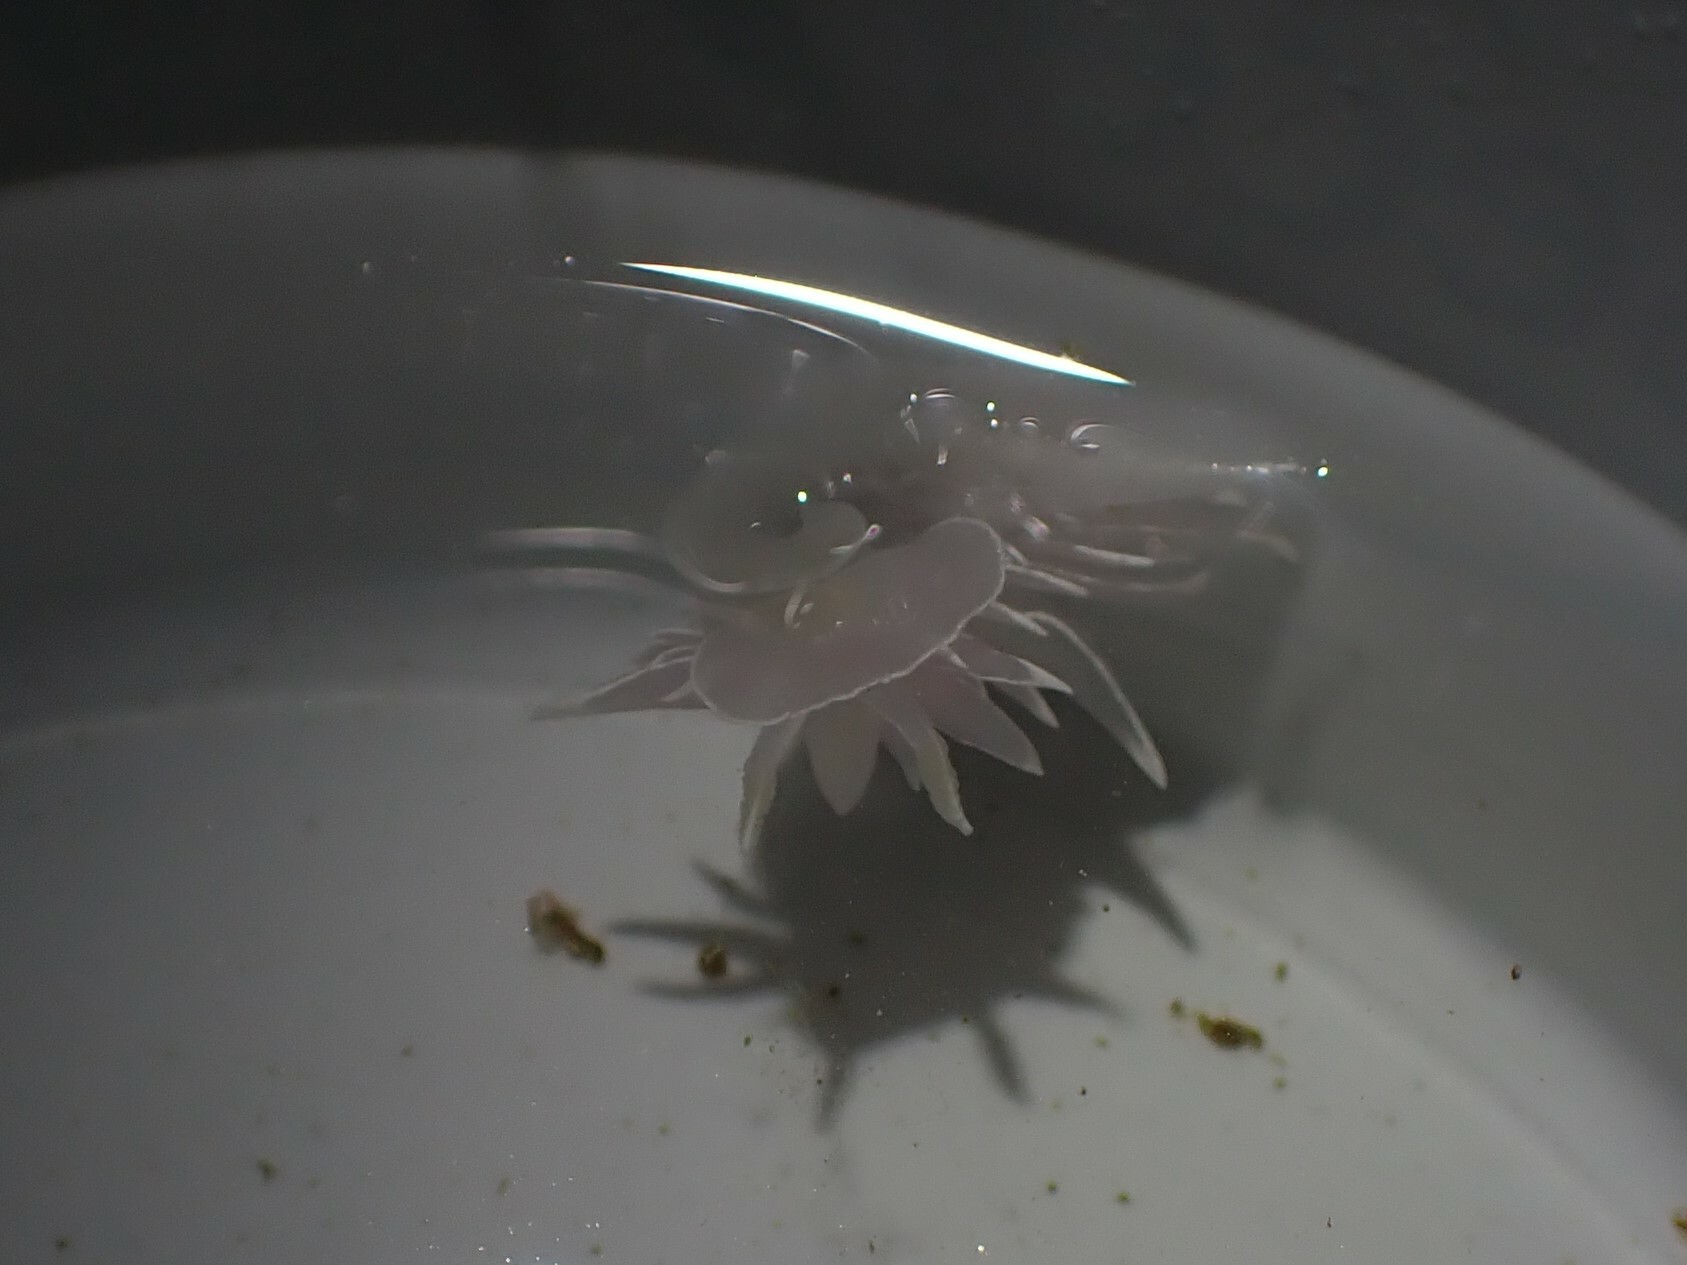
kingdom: Animalia
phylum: Mollusca
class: Gastropoda
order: Nudibranchia
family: Dironidae
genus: Dirona
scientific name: Dirona albolineata
